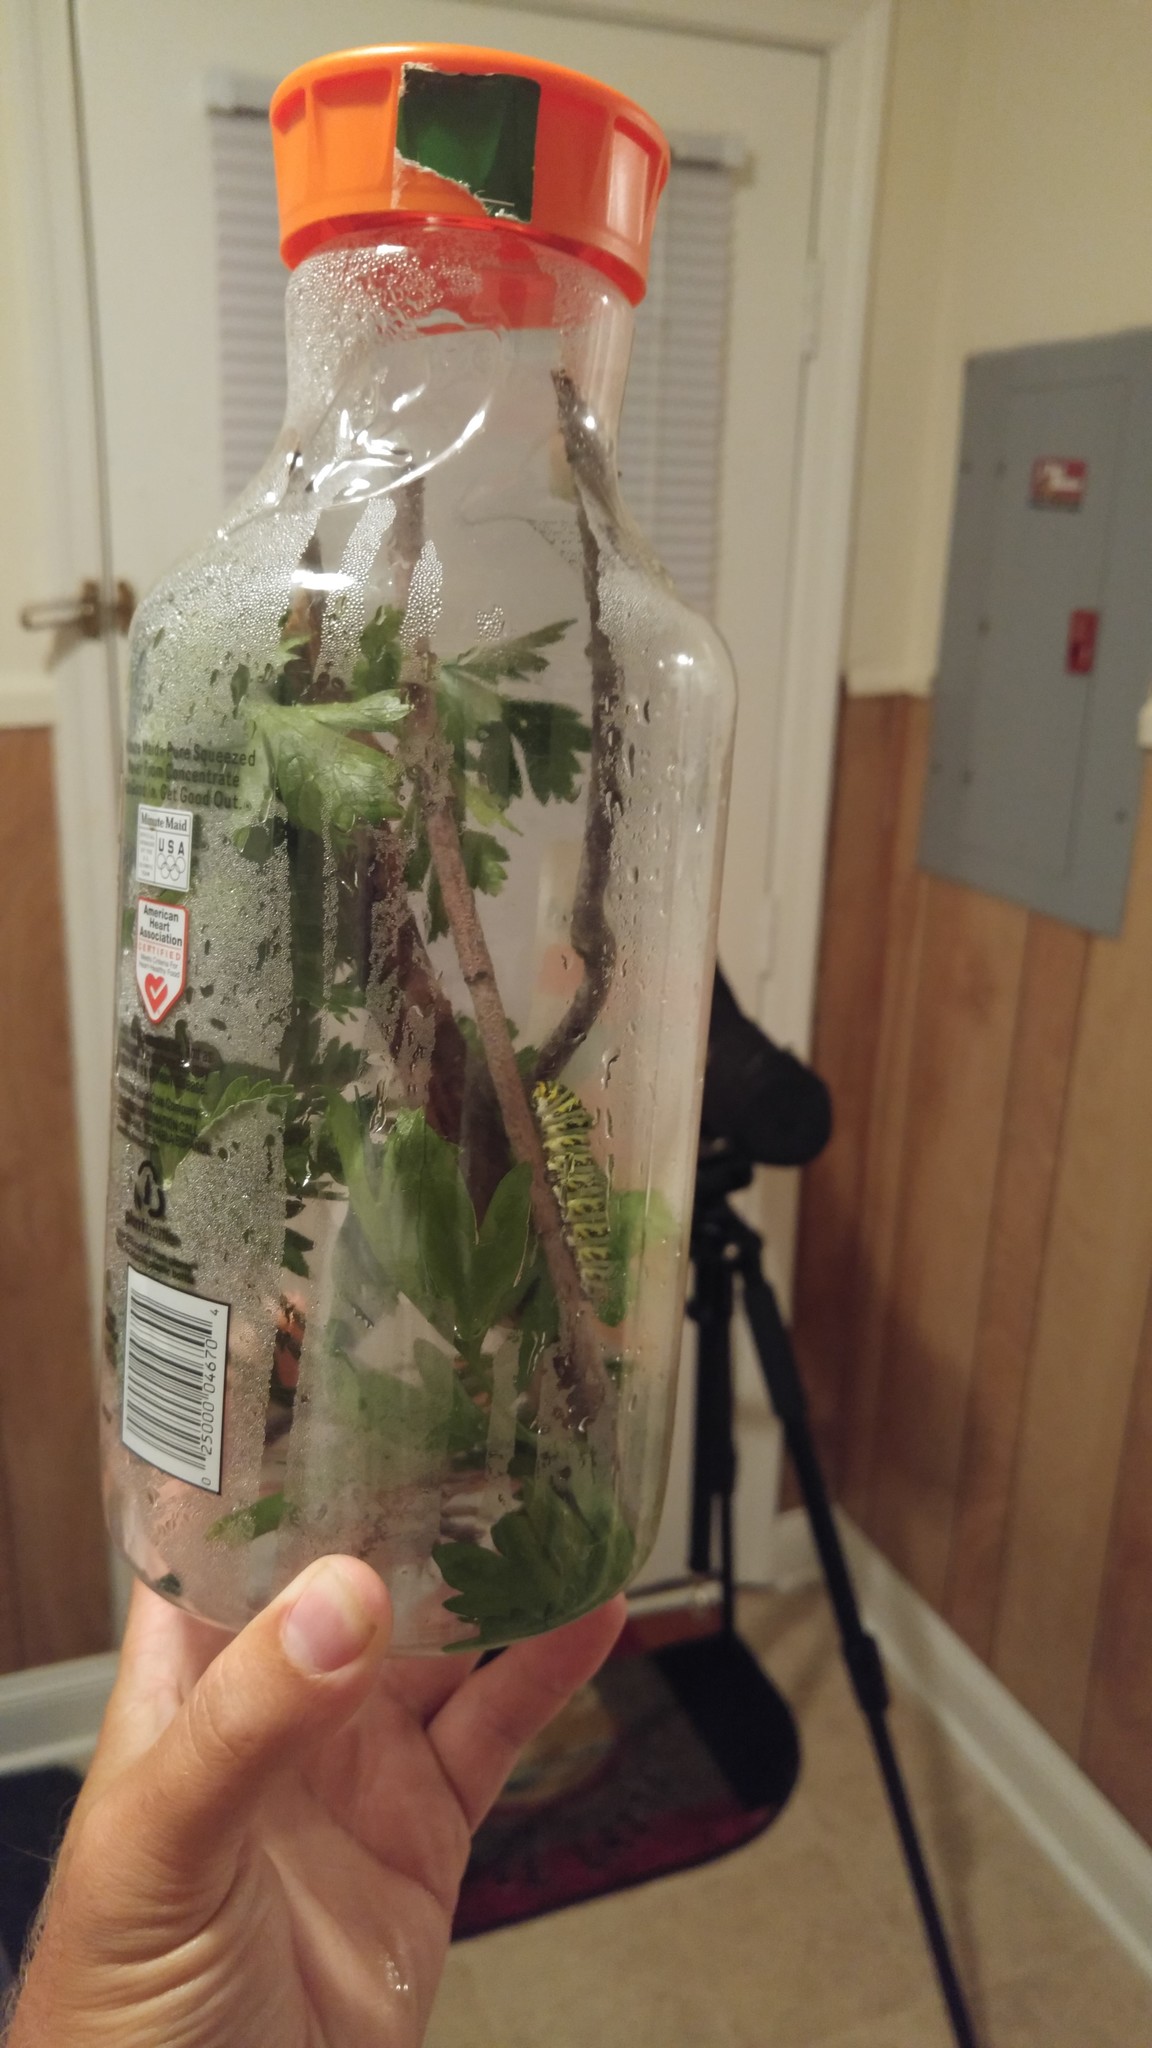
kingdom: Animalia
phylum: Arthropoda
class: Insecta
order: Lepidoptera
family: Papilionidae
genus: Papilio
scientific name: Papilio polyxenes
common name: Black swallowtail
